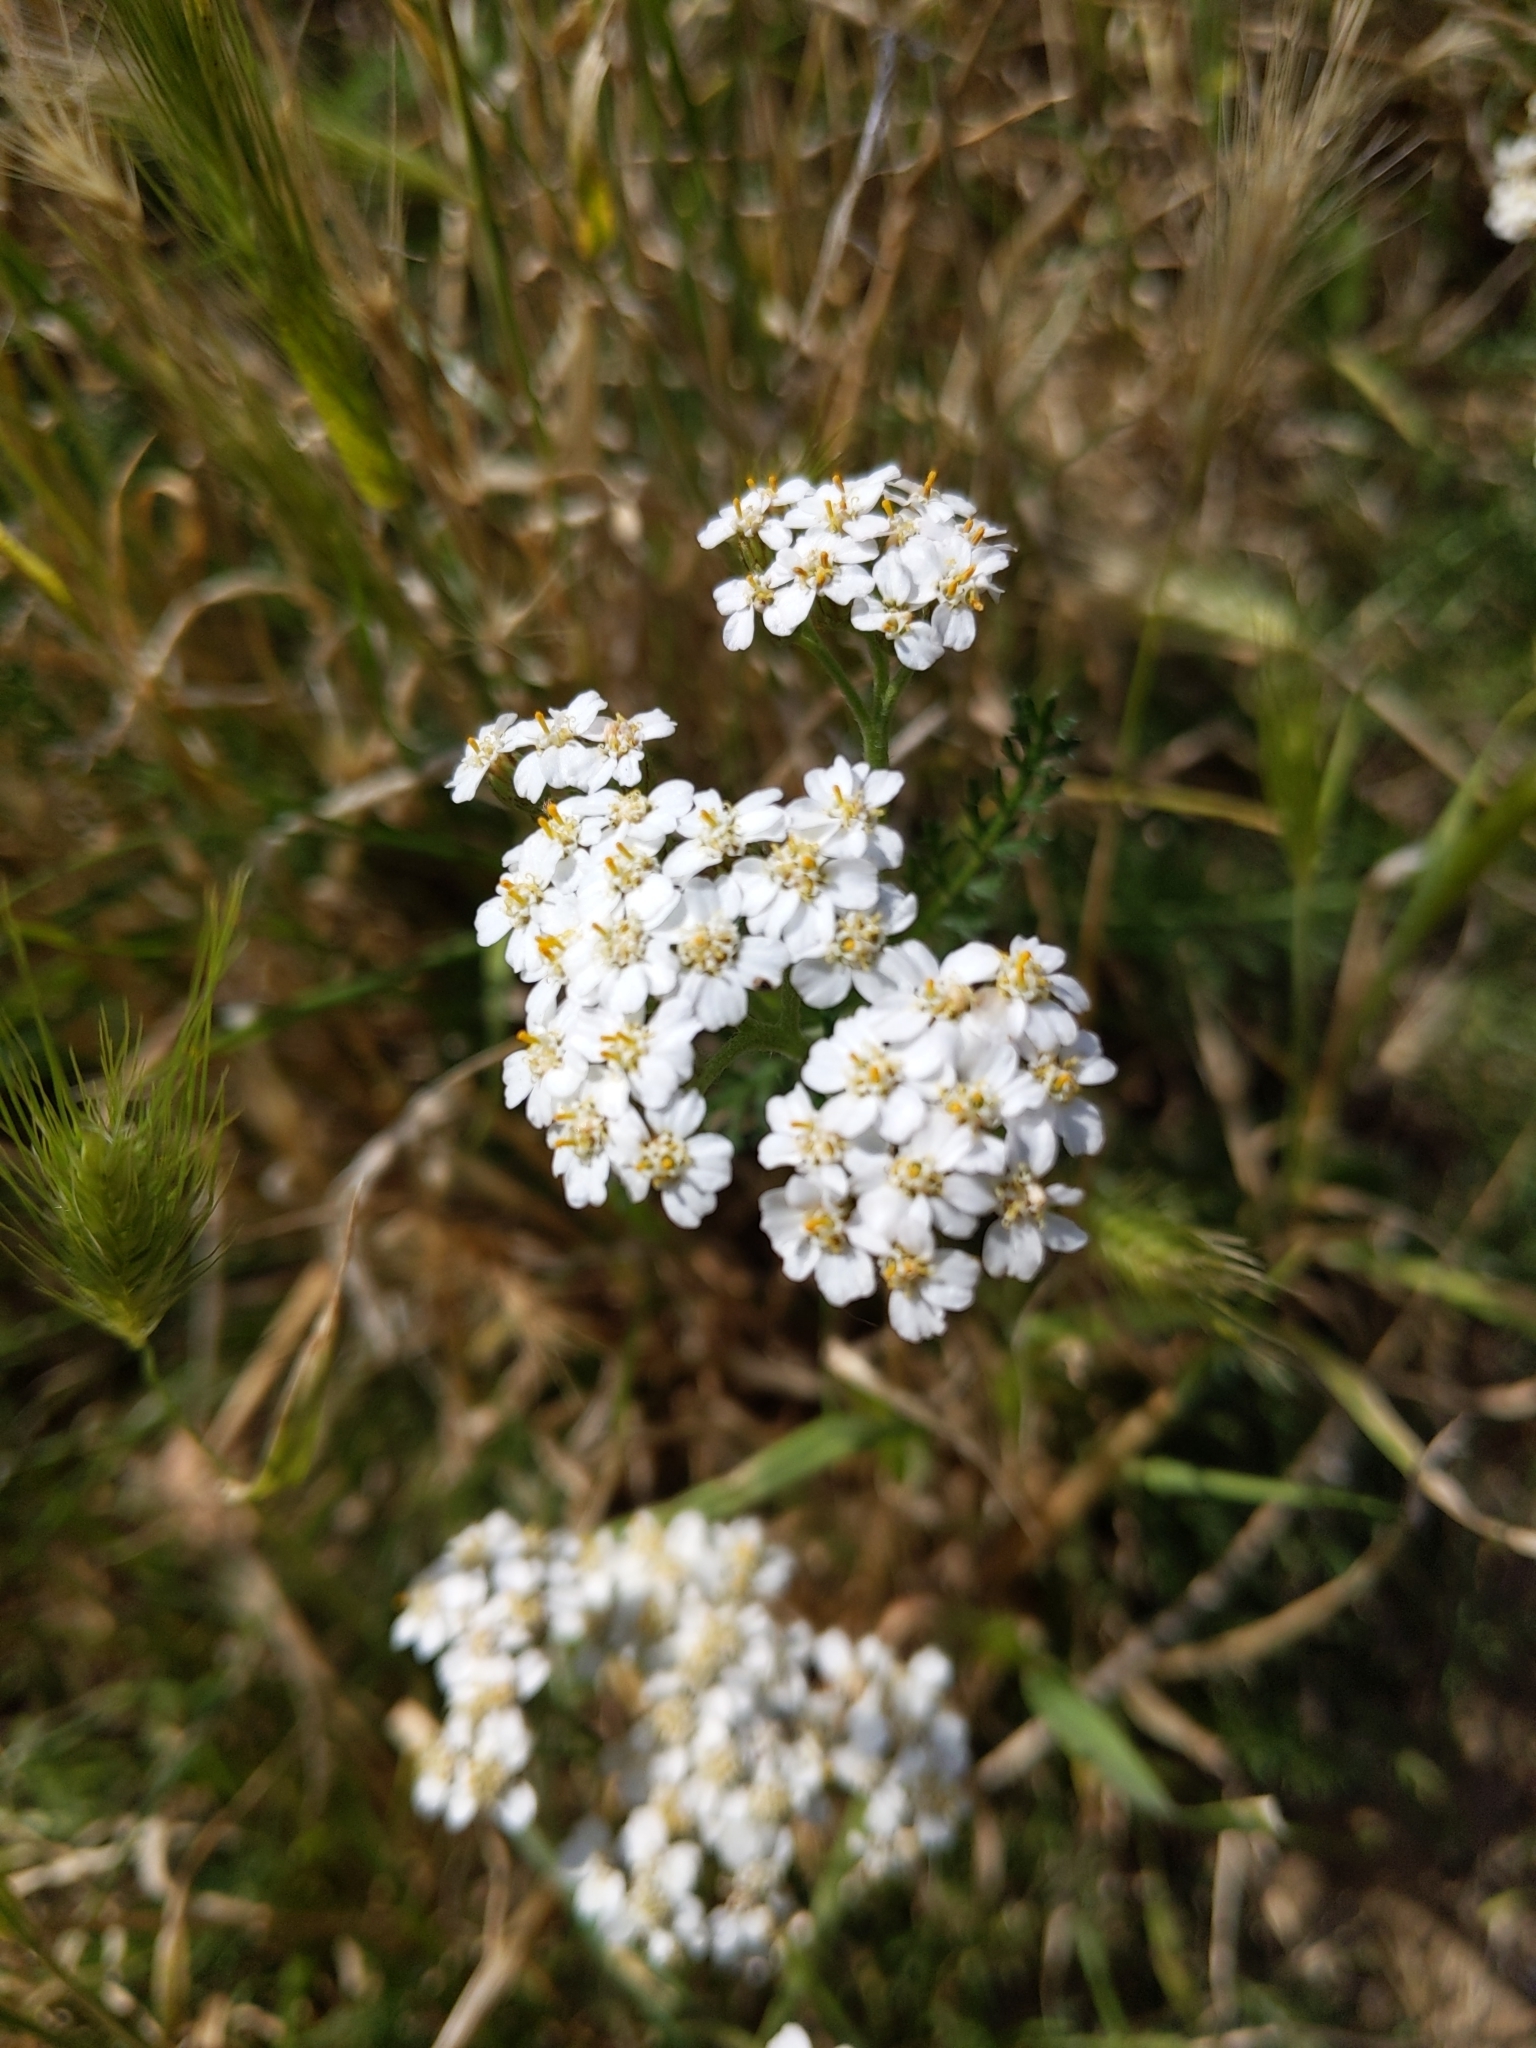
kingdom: Plantae
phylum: Tracheophyta
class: Magnoliopsida
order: Asterales
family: Asteraceae
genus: Achillea
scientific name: Achillea millefolium
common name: Yarrow
